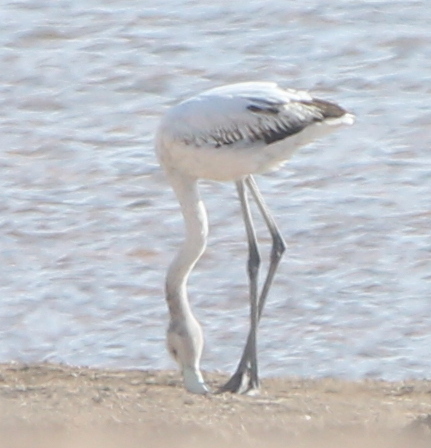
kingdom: Animalia
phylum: Chordata
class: Aves
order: Phoenicopteriformes
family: Phoenicopteridae
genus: Phoenicopterus
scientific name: Phoenicopterus roseus
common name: Greater flamingo
